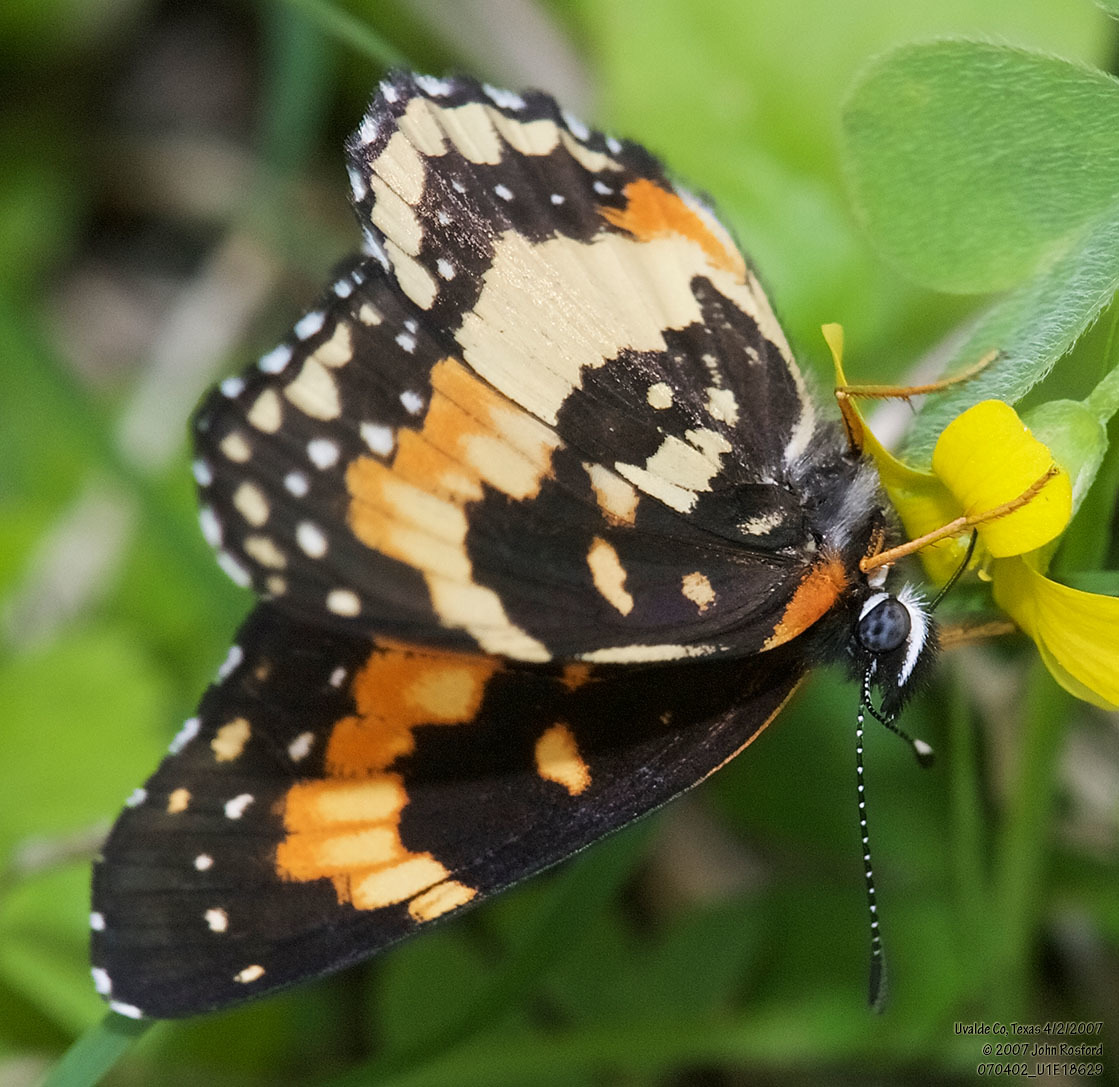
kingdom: Animalia
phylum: Arthropoda
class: Insecta
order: Lepidoptera
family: Nymphalidae
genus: Chlosyne
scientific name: Chlosyne lacinia
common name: Bordered patch
